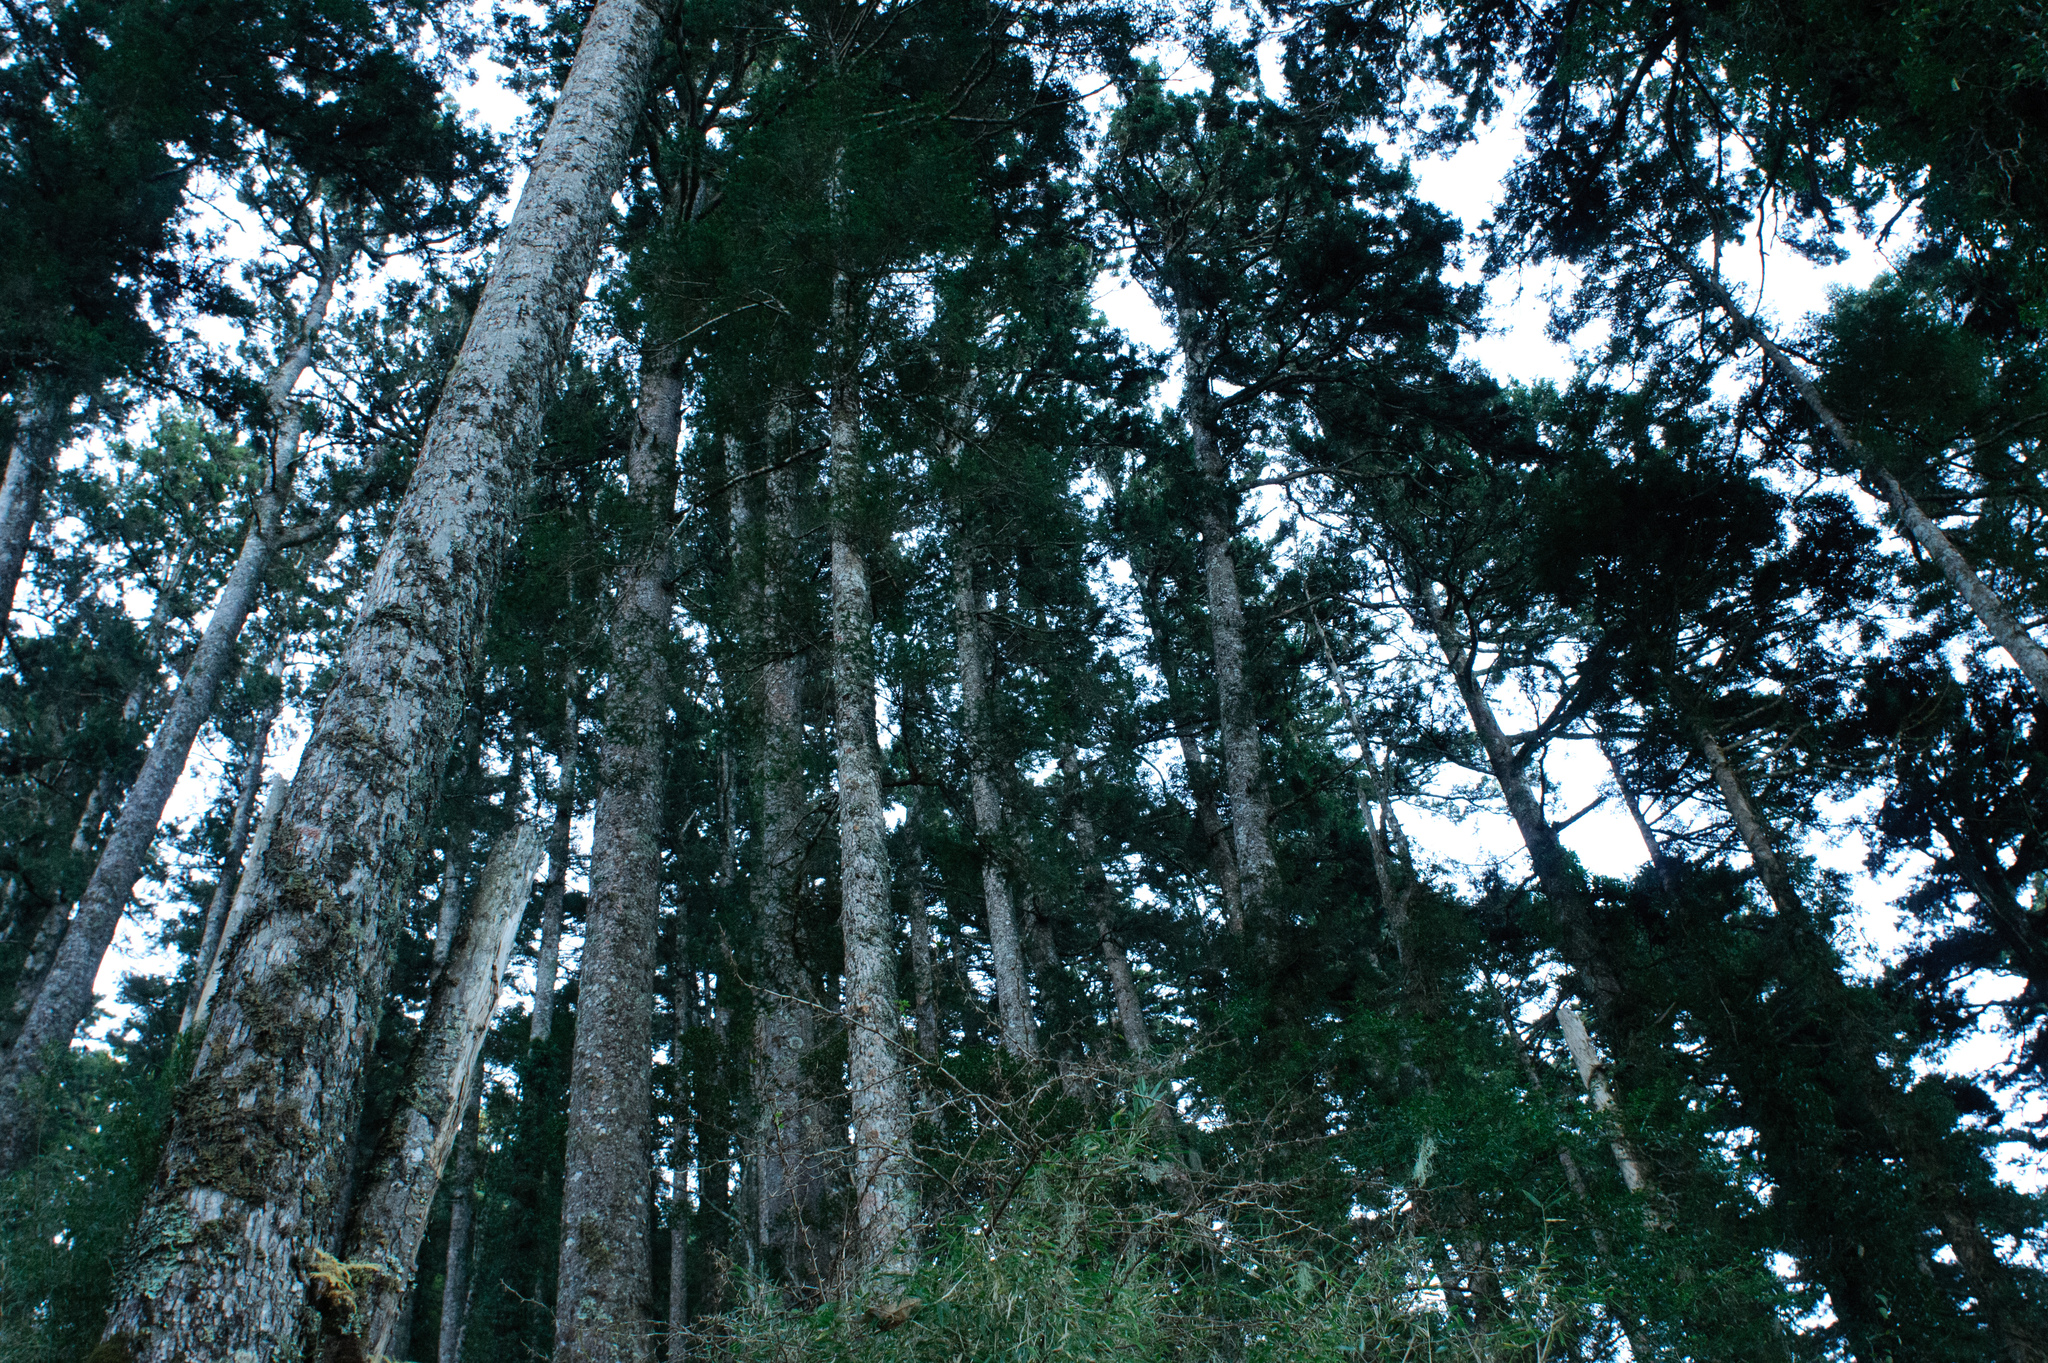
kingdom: Plantae
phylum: Tracheophyta
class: Pinopsida
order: Pinales
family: Pinaceae
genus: Picea
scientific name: Picea morrisonicola
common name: Mount morrison spruce
